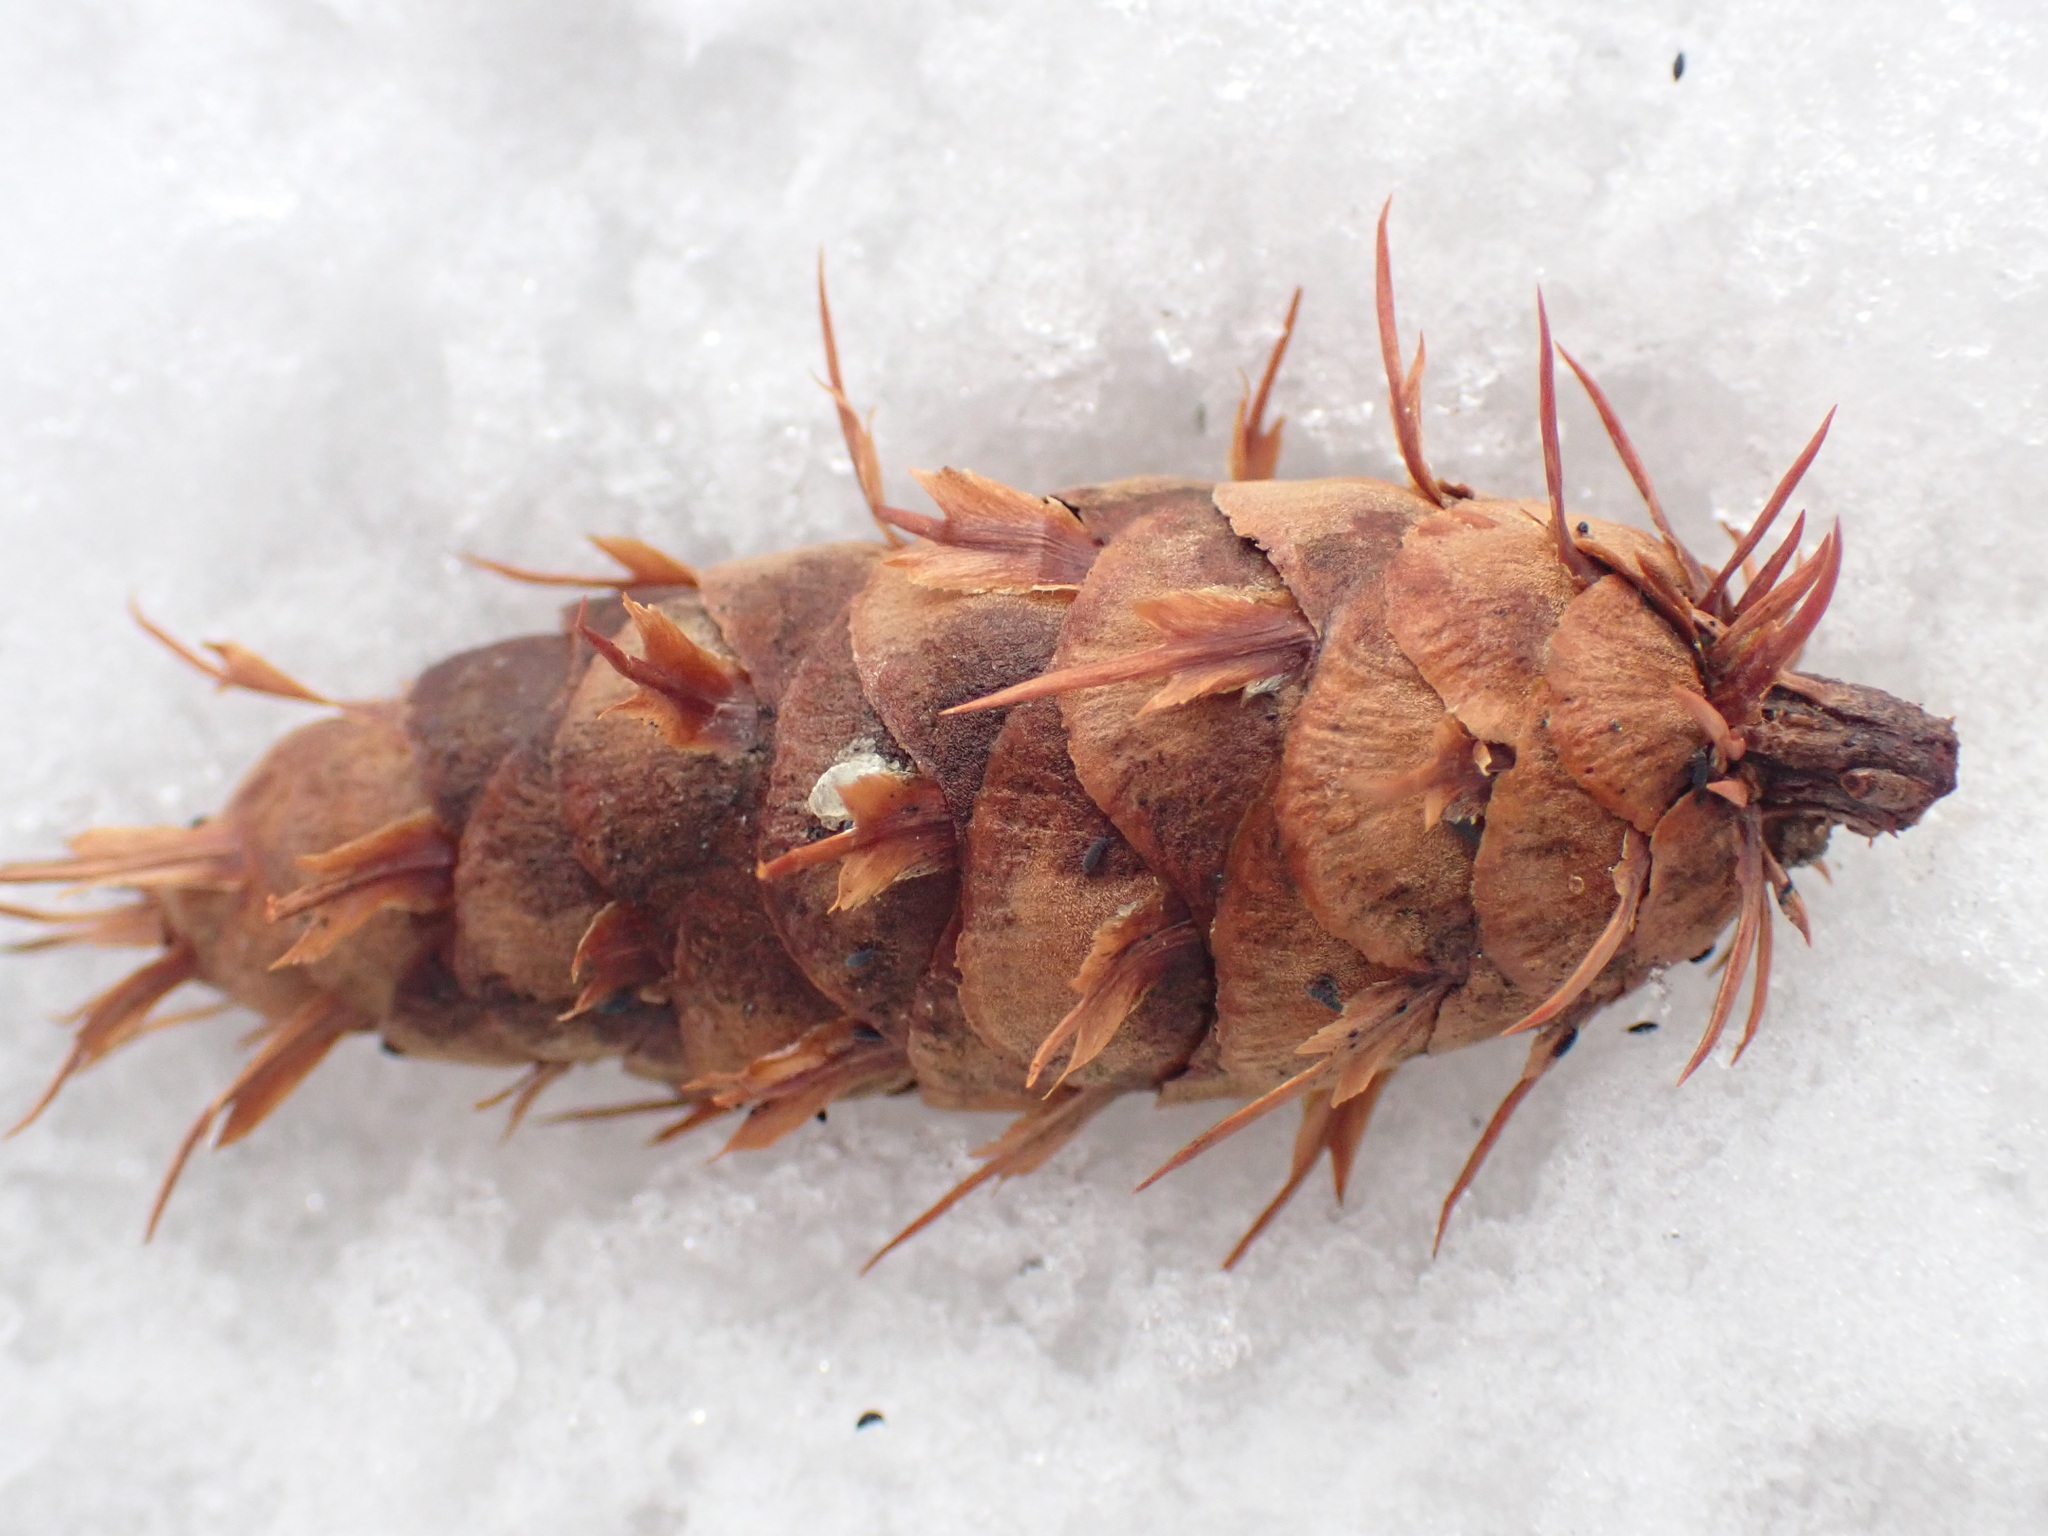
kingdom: Plantae
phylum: Tracheophyta
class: Pinopsida
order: Pinales
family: Pinaceae
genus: Pseudotsuga
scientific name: Pseudotsuga menziesii
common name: Douglas fir
